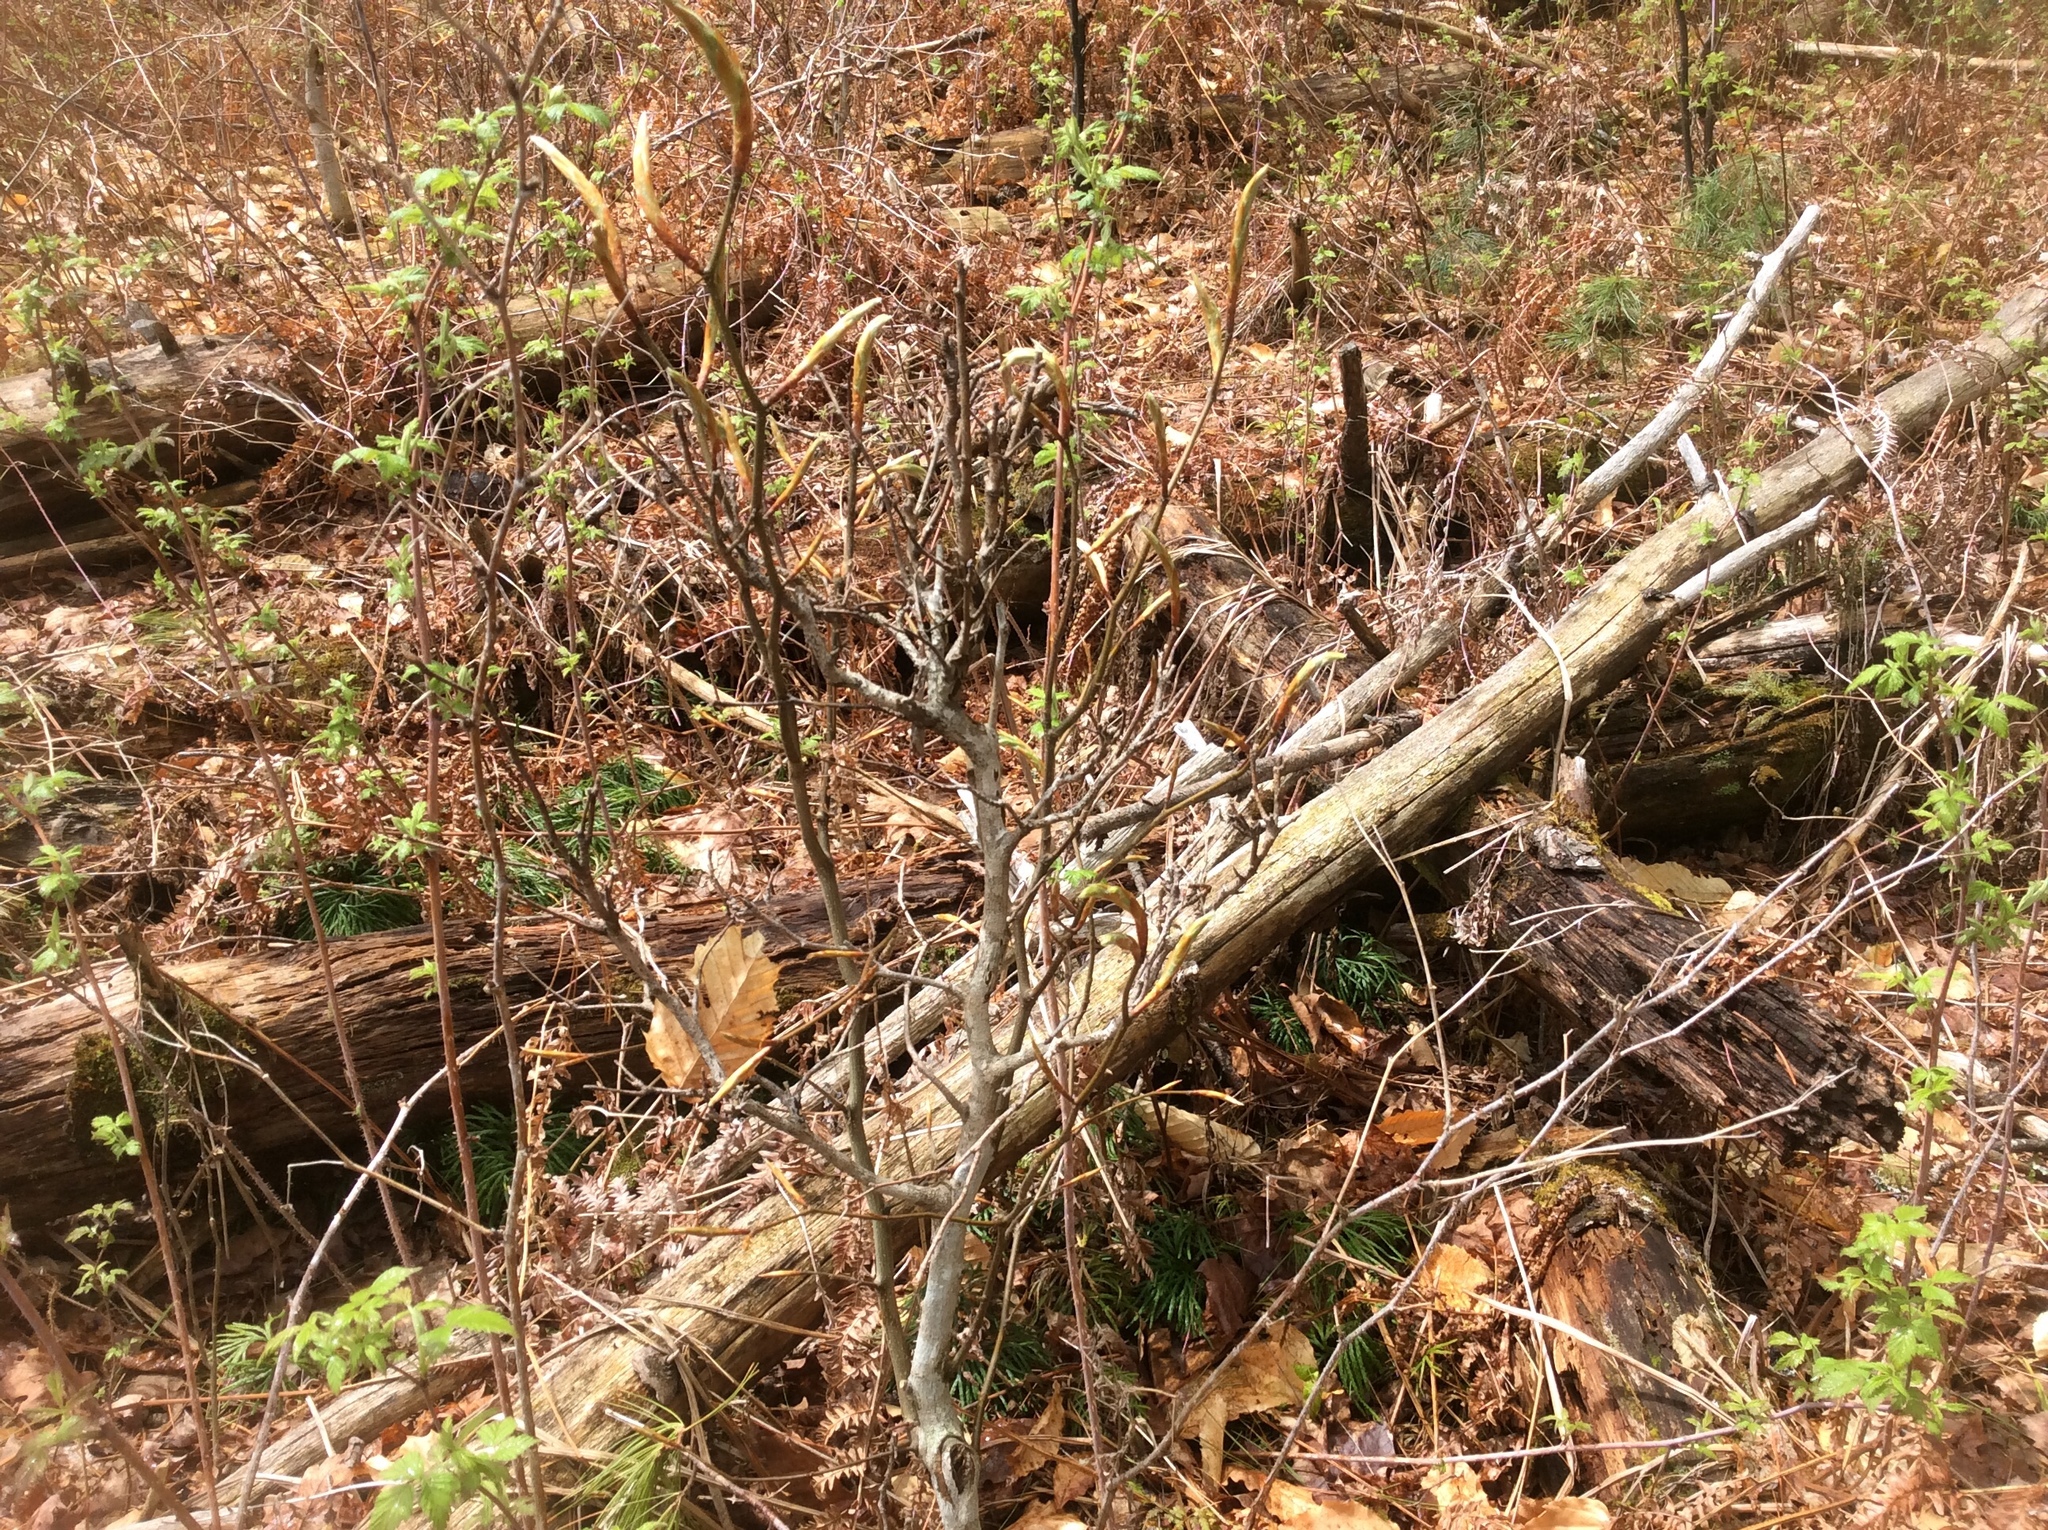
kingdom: Plantae
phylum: Tracheophyta
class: Magnoliopsida
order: Fagales
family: Fagaceae
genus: Fagus
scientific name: Fagus grandifolia
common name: American beech
